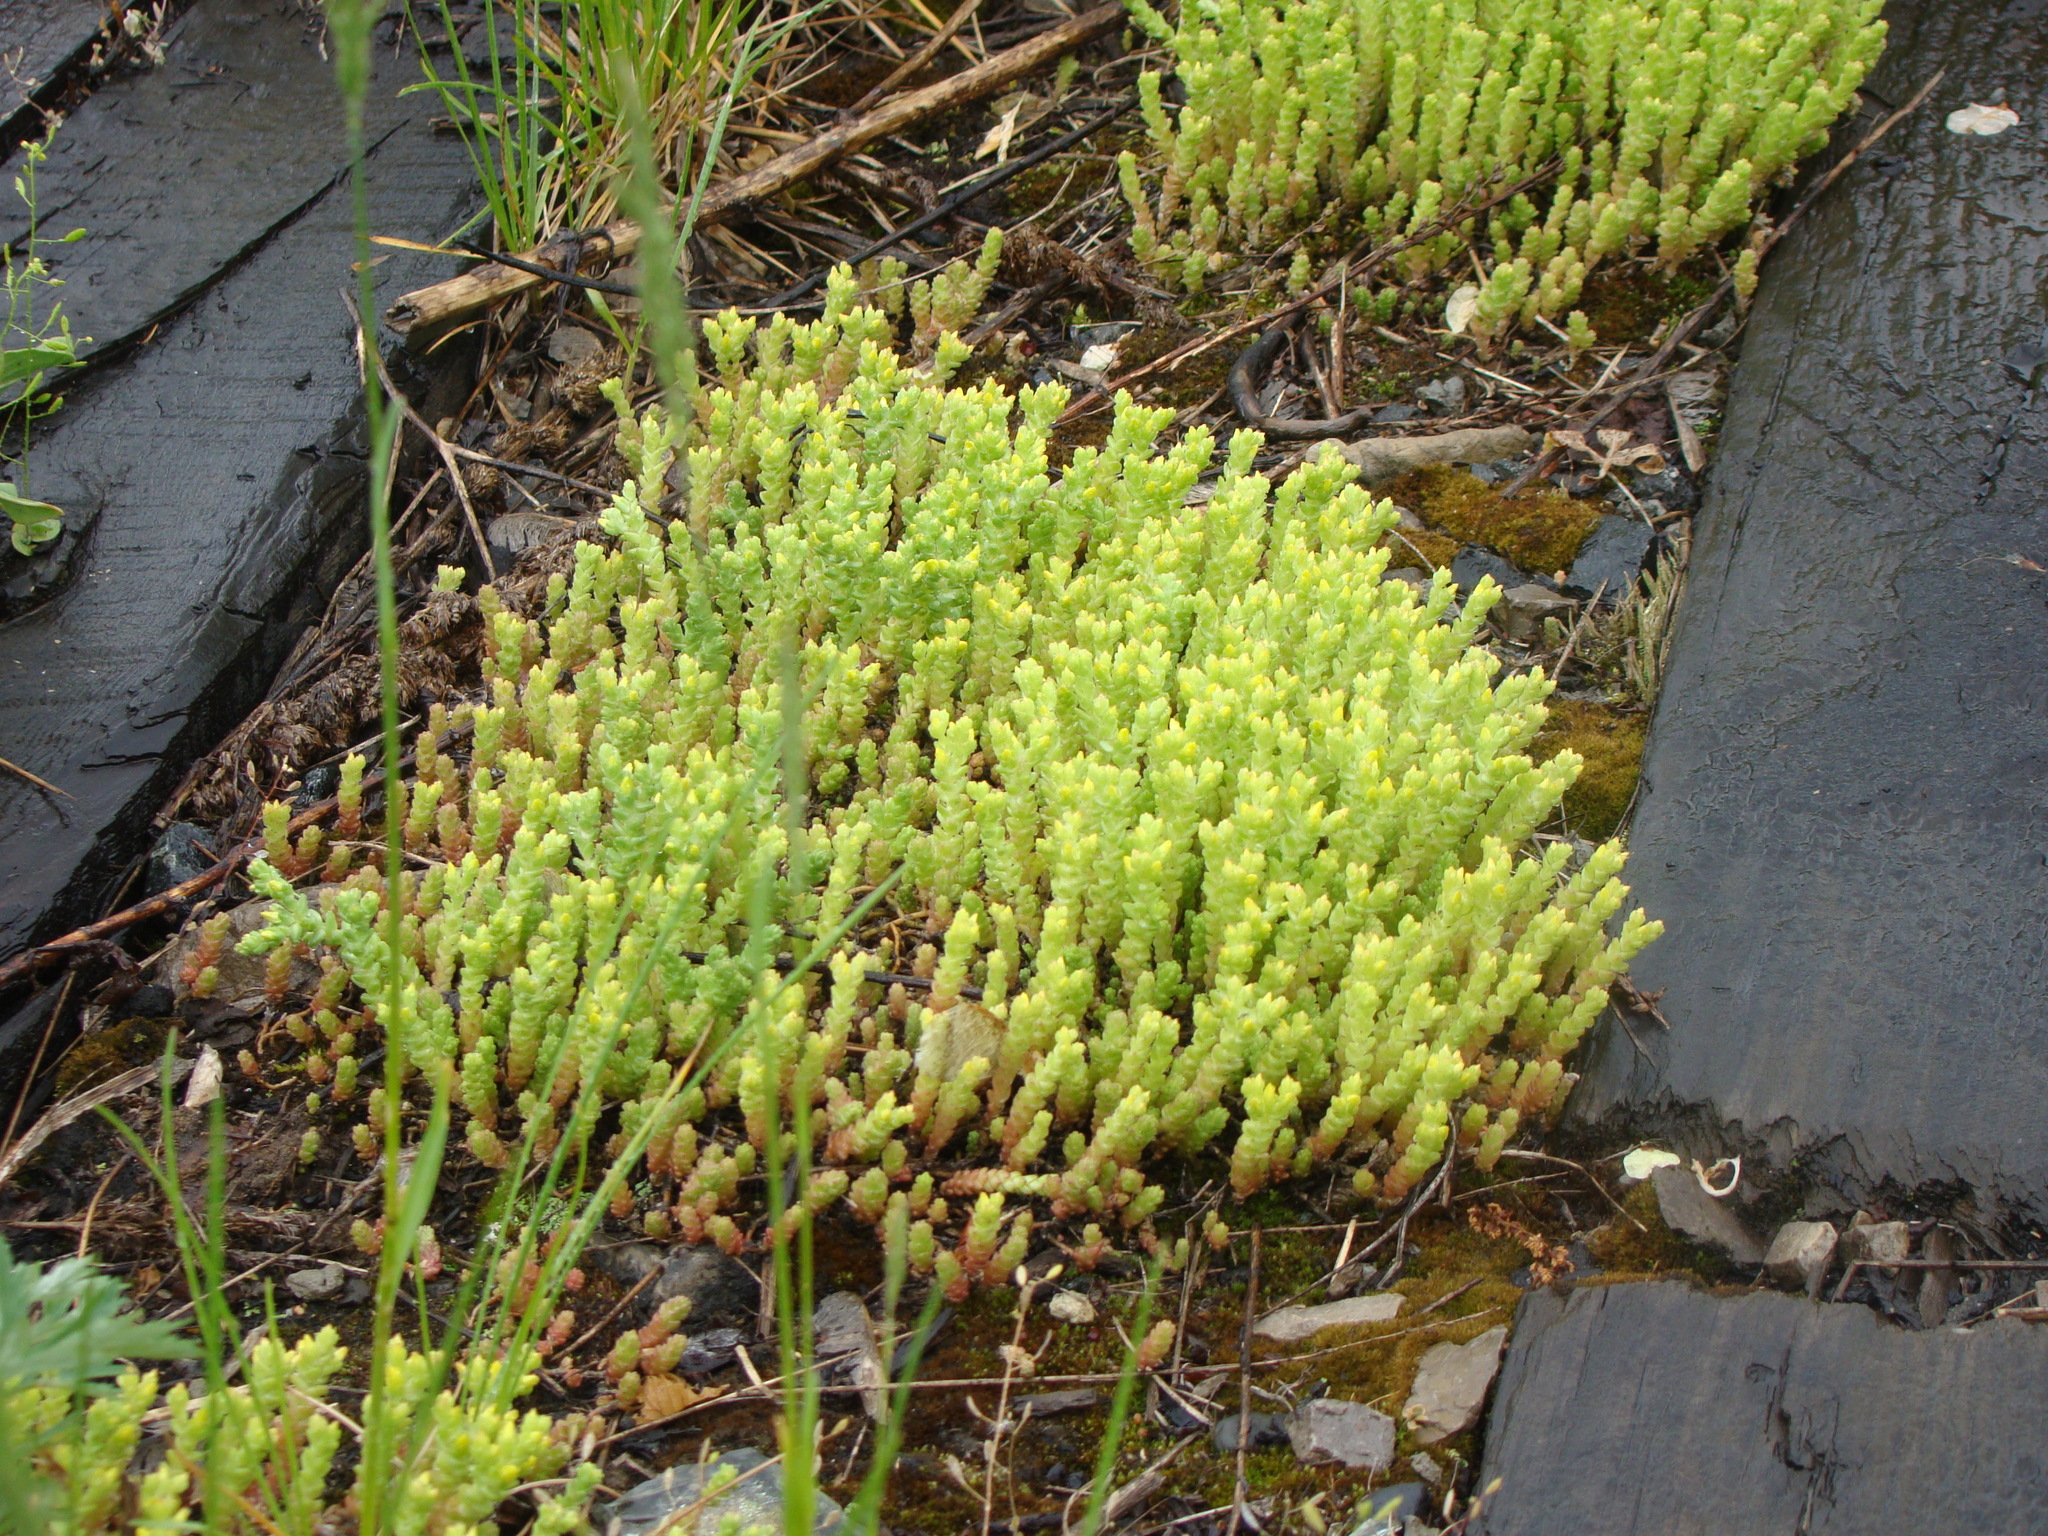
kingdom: Plantae
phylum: Tracheophyta
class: Magnoliopsida
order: Saxifragales
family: Crassulaceae
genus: Sedum
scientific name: Sedum acre
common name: Biting stonecrop
